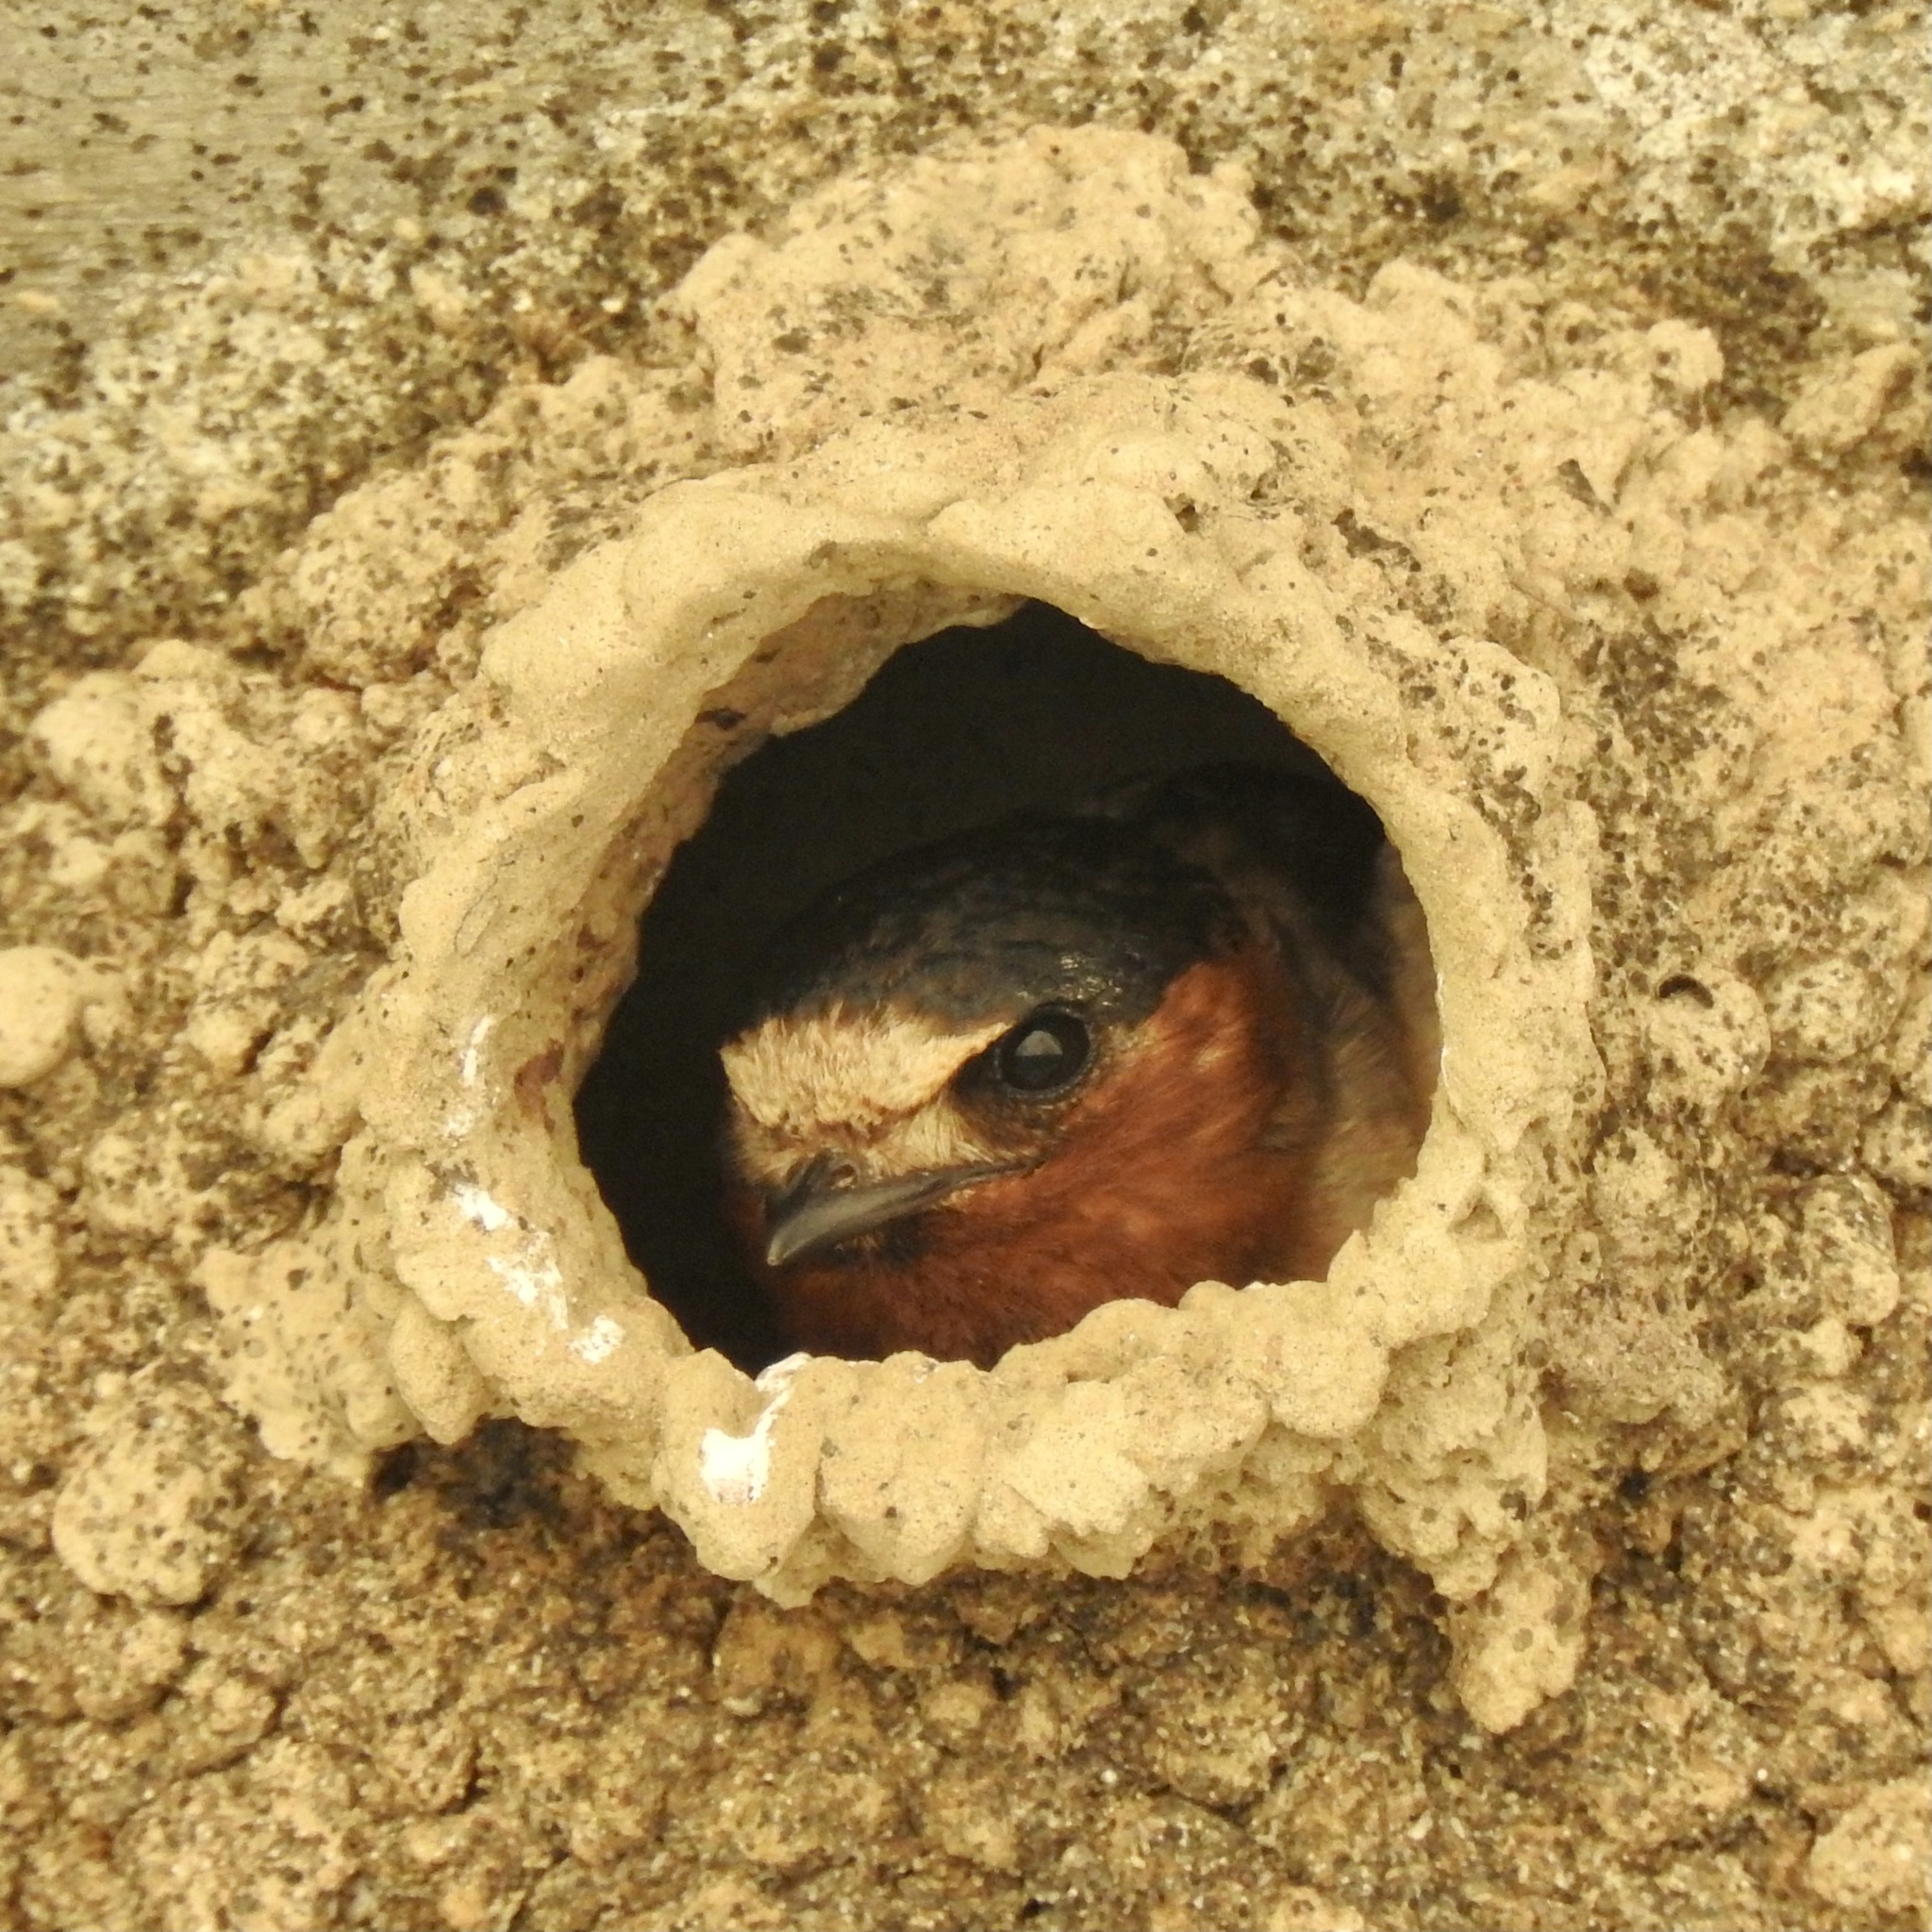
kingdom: Animalia
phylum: Chordata
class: Aves
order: Passeriformes
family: Hirundinidae
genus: Petrochelidon
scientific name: Petrochelidon pyrrhonota
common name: American cliff swallow
